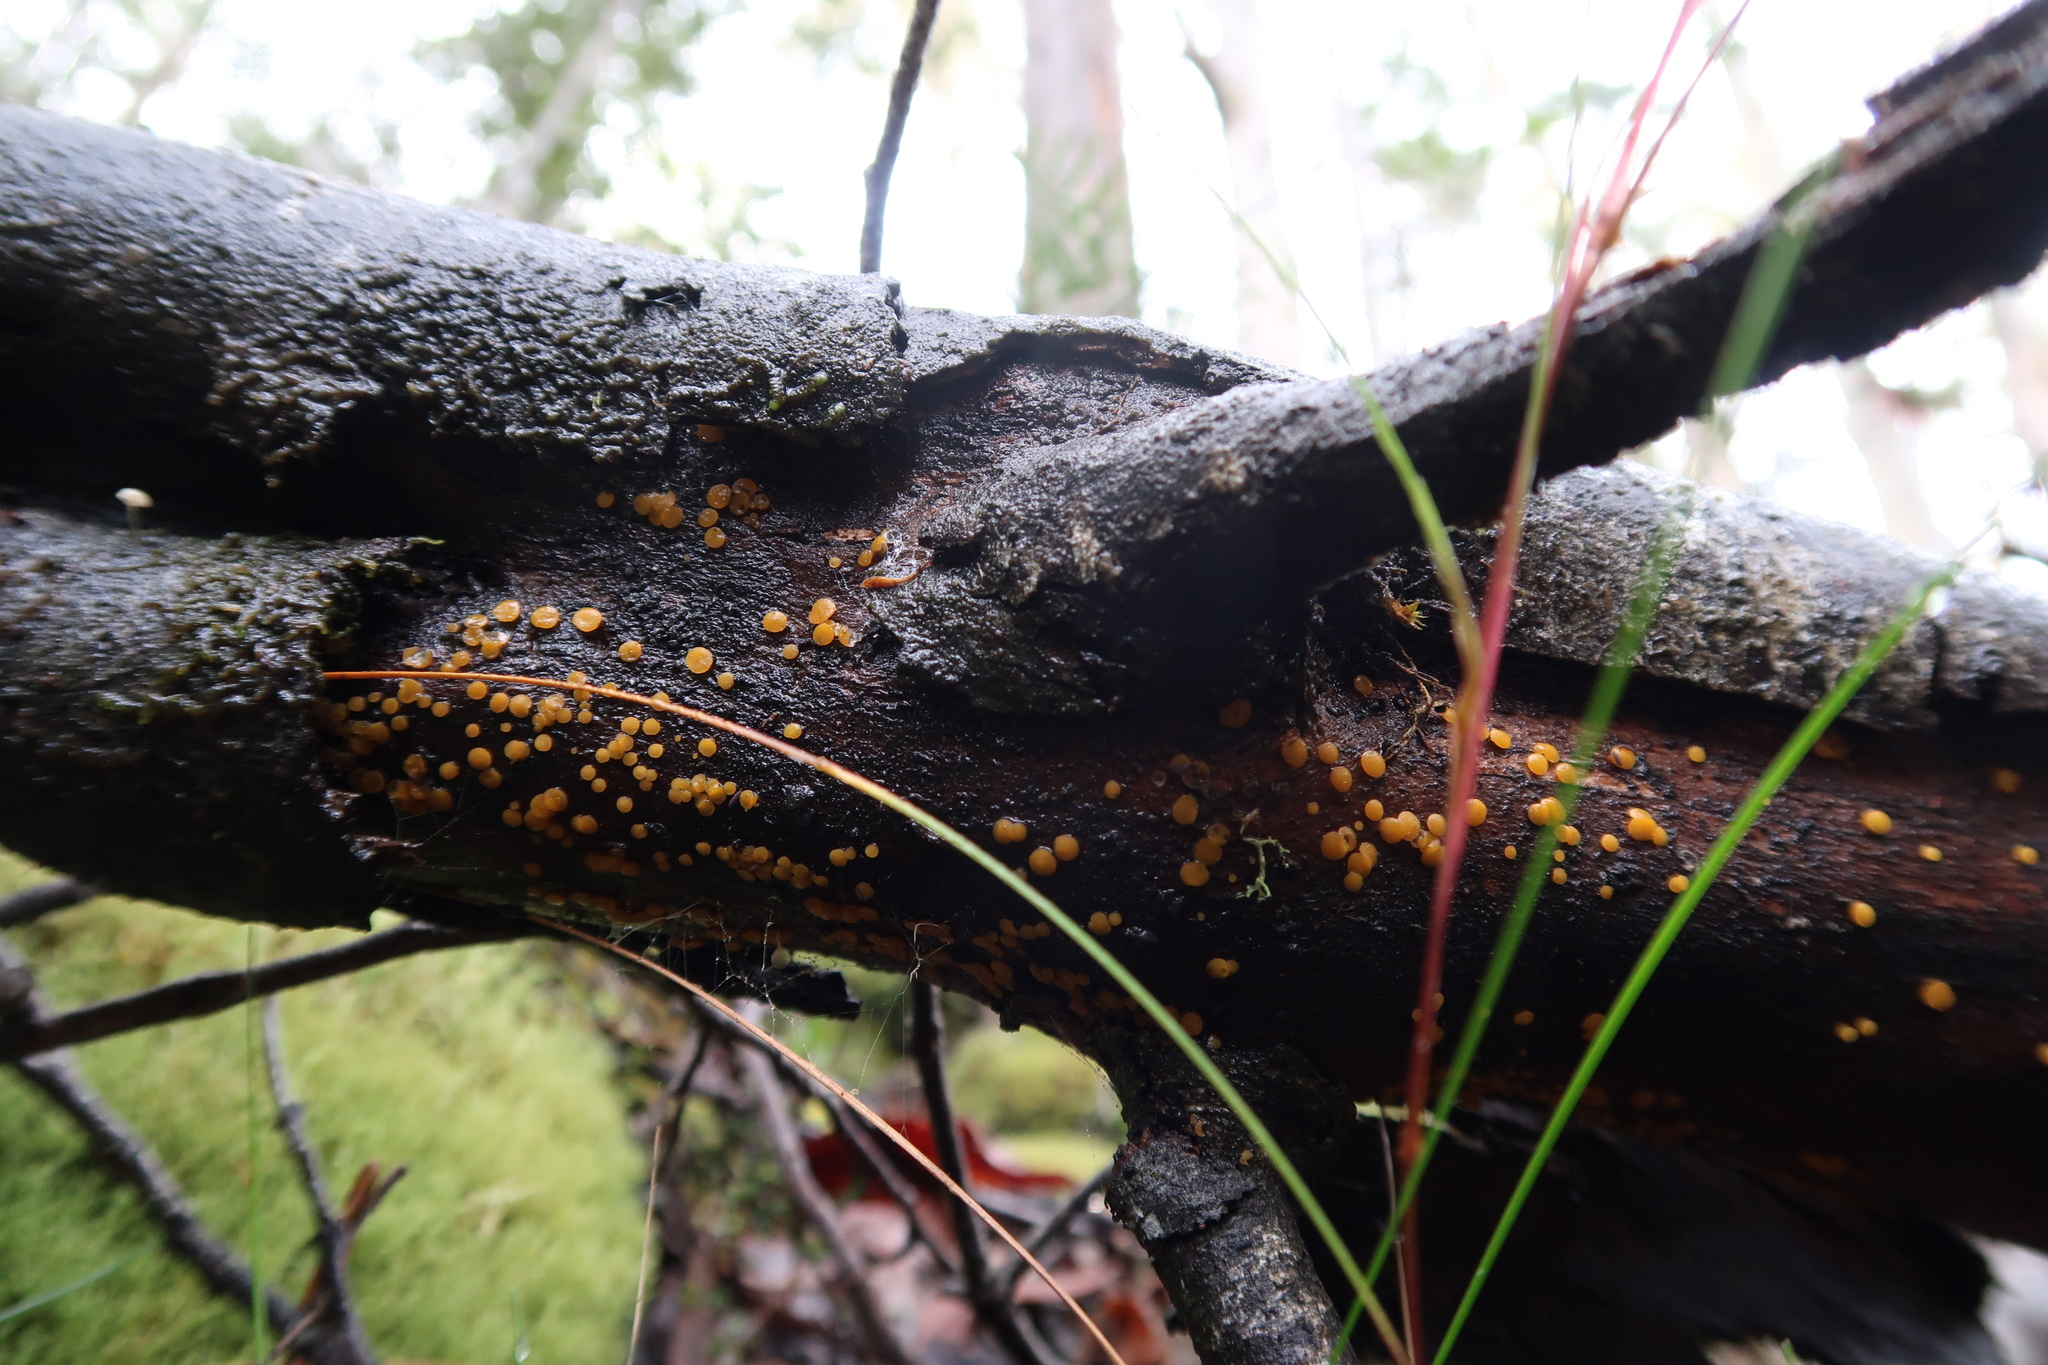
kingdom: Fungi
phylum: Ascomycota
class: Leotiomycetes
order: Helotiales
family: Pezizellaceae
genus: Calycina
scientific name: Calycina citrina
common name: Yellow fairy cups
